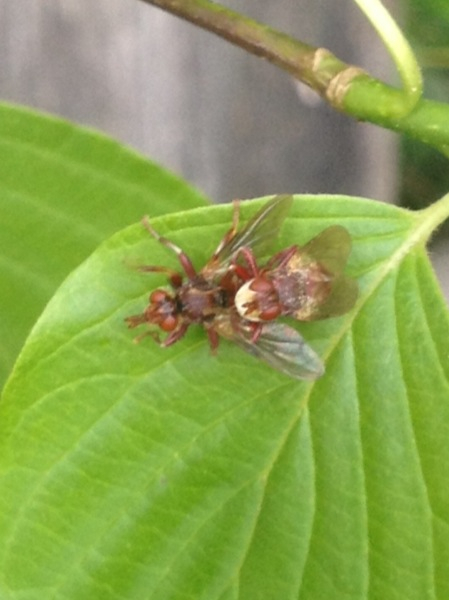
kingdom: Animalia
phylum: Arthropoda
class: Insecta
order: Diptera
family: Conopidae
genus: Myopa
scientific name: Myopa clausa
